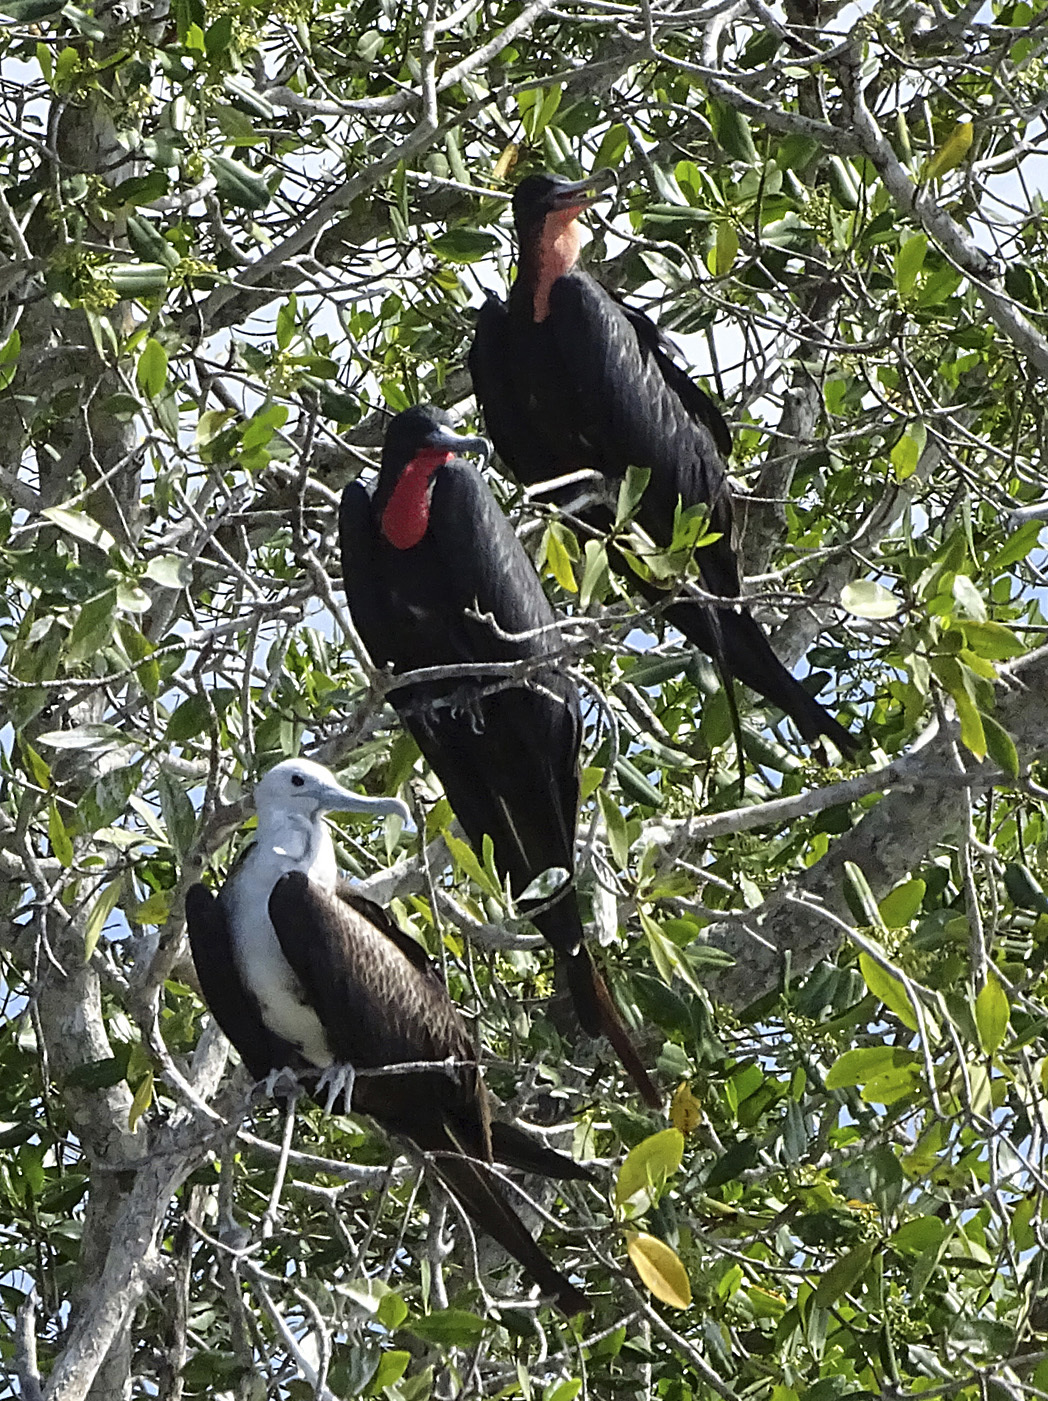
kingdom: Animalia
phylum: Chordata
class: Aves
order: Suliformes
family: Fregatidae
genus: Fregata
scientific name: Fregata magnificens
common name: Magnificent frigatebird
